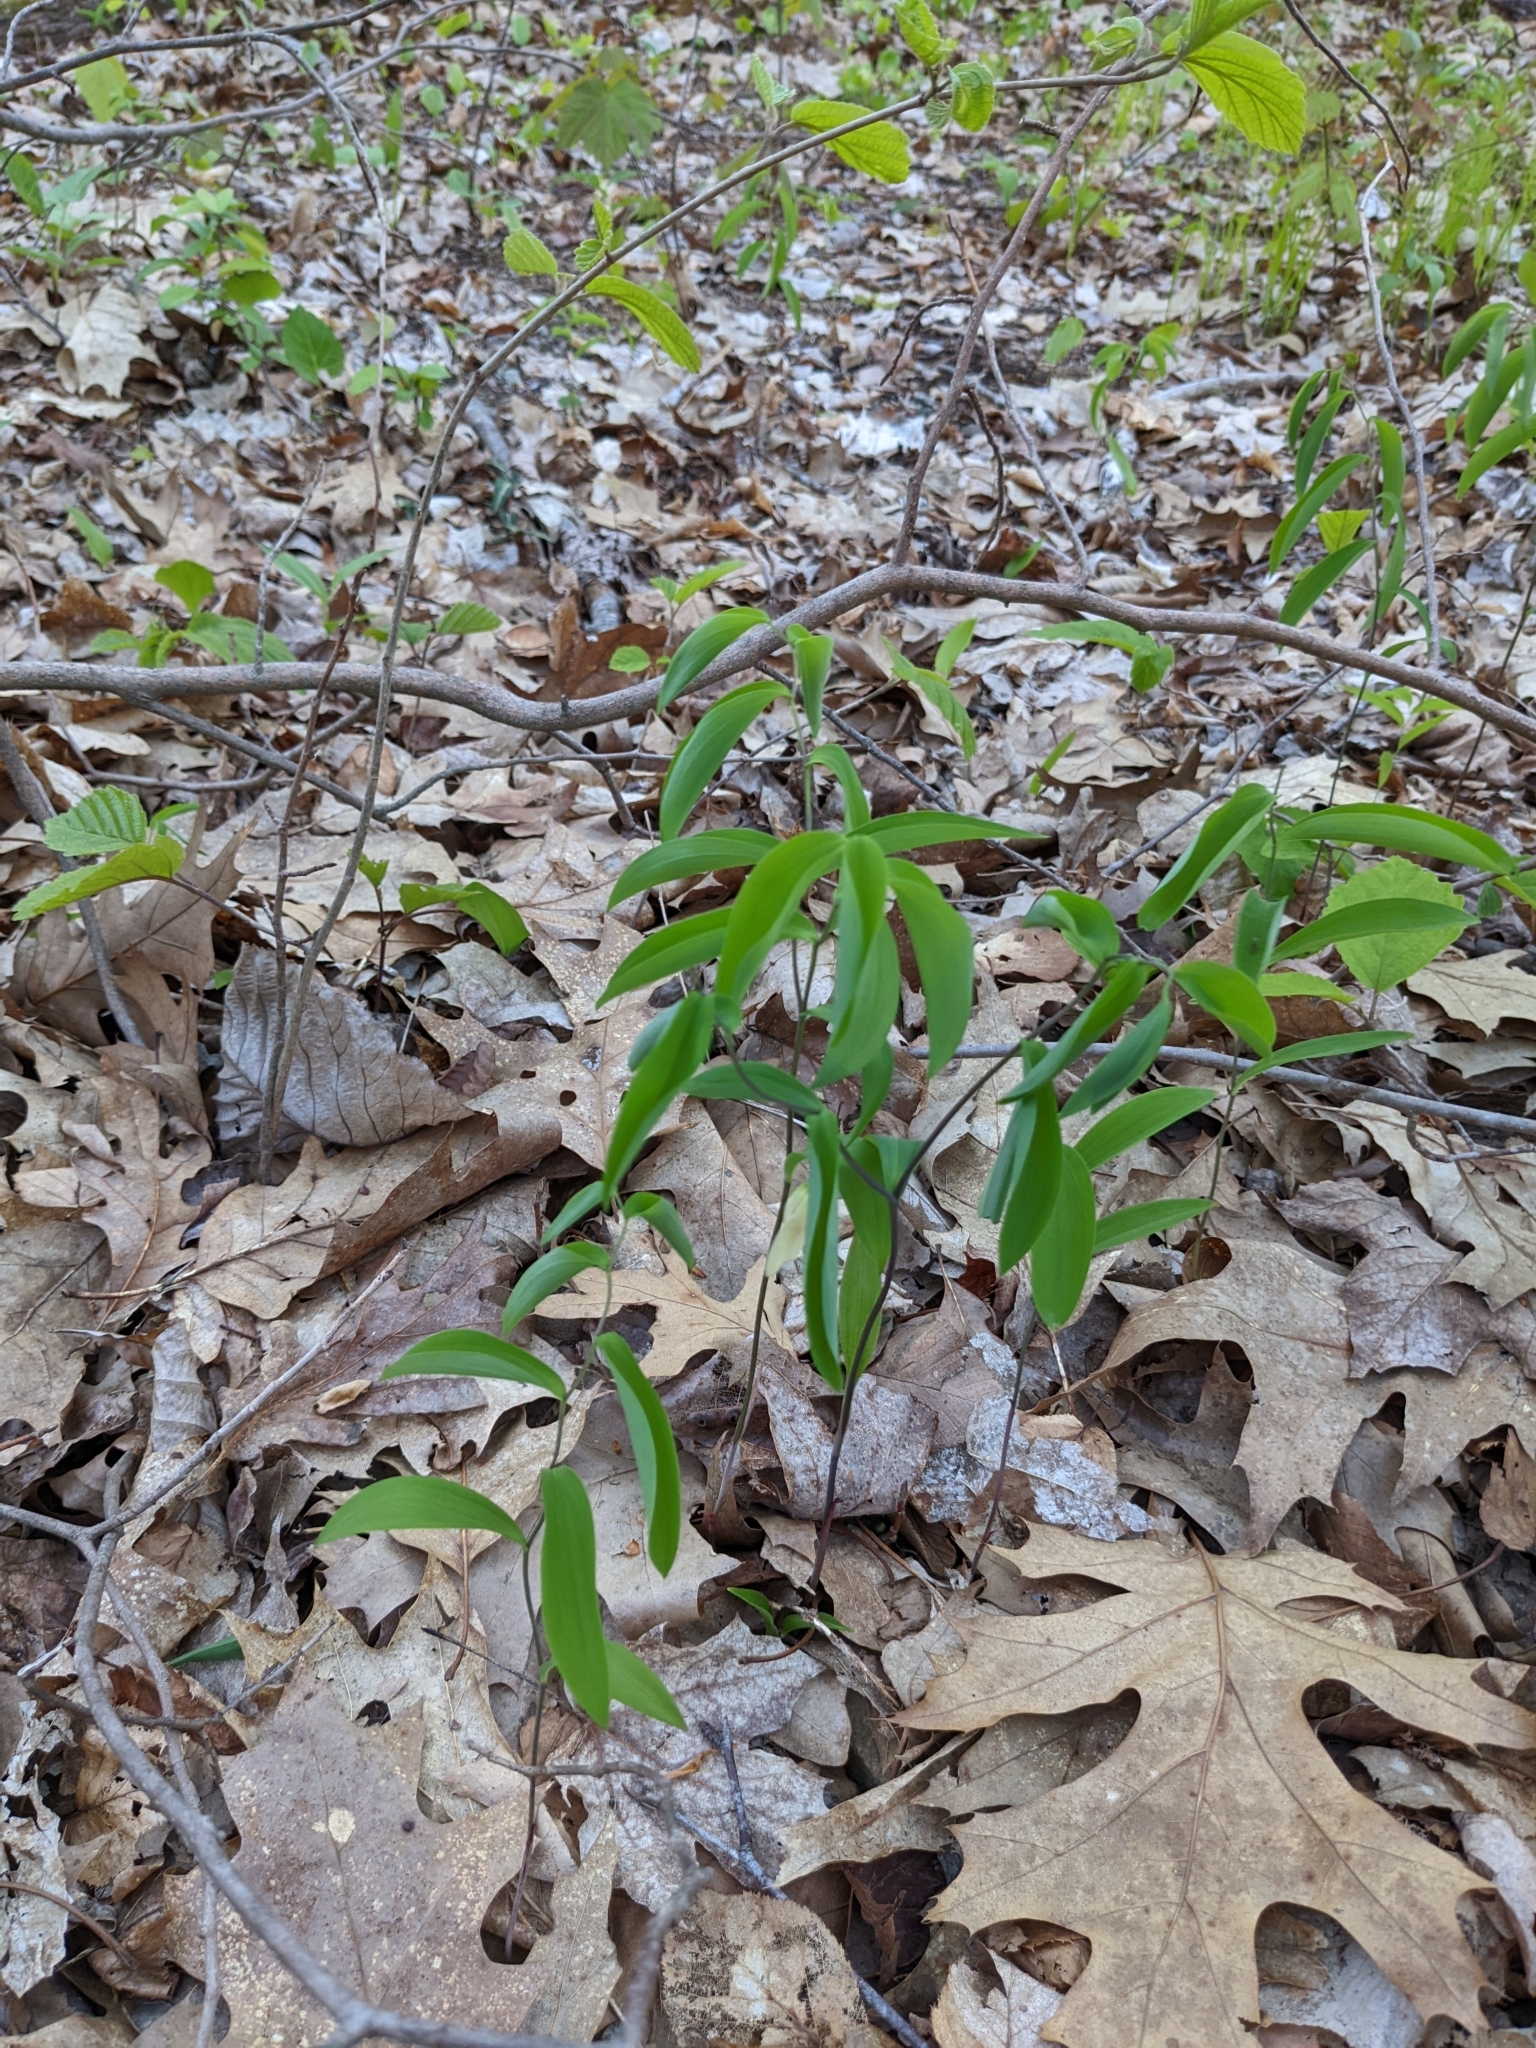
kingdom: Plantae
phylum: Tracheophyta
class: Liliopsida
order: Liliales
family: Colchicaceae
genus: Uvularia
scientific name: Uvularia sessilifolia
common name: Straw-lily
